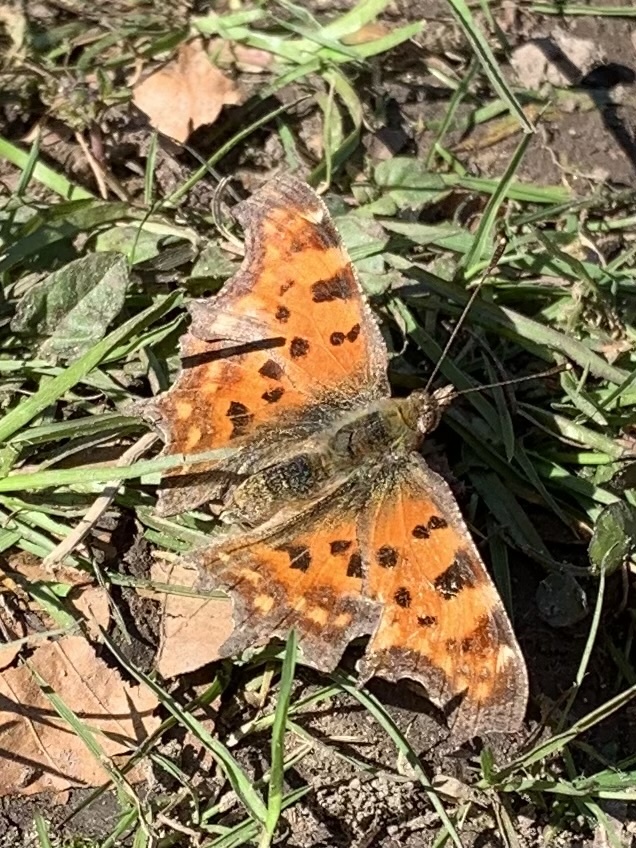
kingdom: Animalia
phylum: Arthropoda
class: Insecta
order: Lepidoptera
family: Nymphalidae
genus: Polygonia
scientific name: Polygonia c-album
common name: Comma
